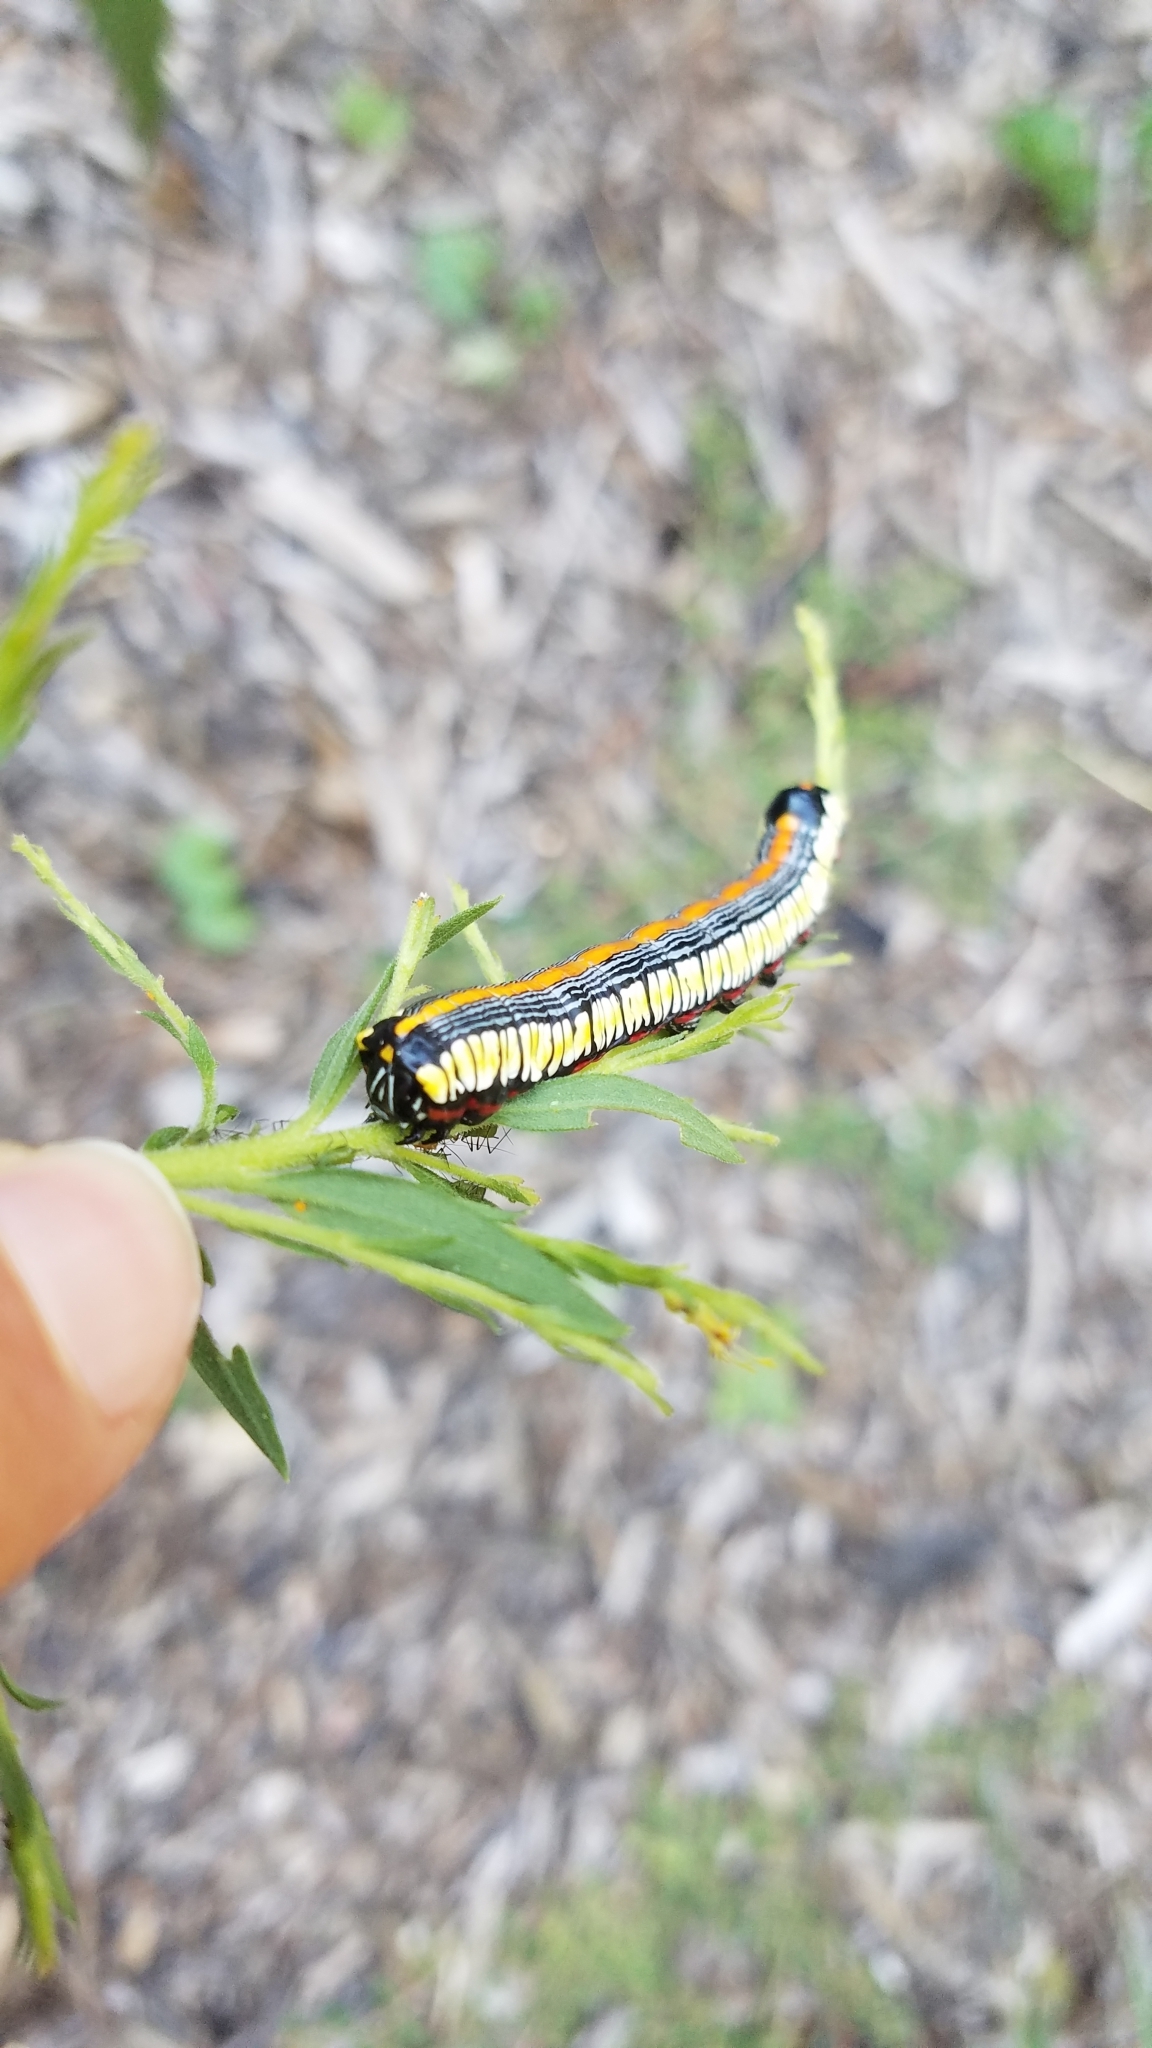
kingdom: Animalia
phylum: Arthropoda
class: Insecta
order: Lepidoptera
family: Noctuidae
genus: Cucullia
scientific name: Cucullia convexipennis
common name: Brown-hooded owlet
